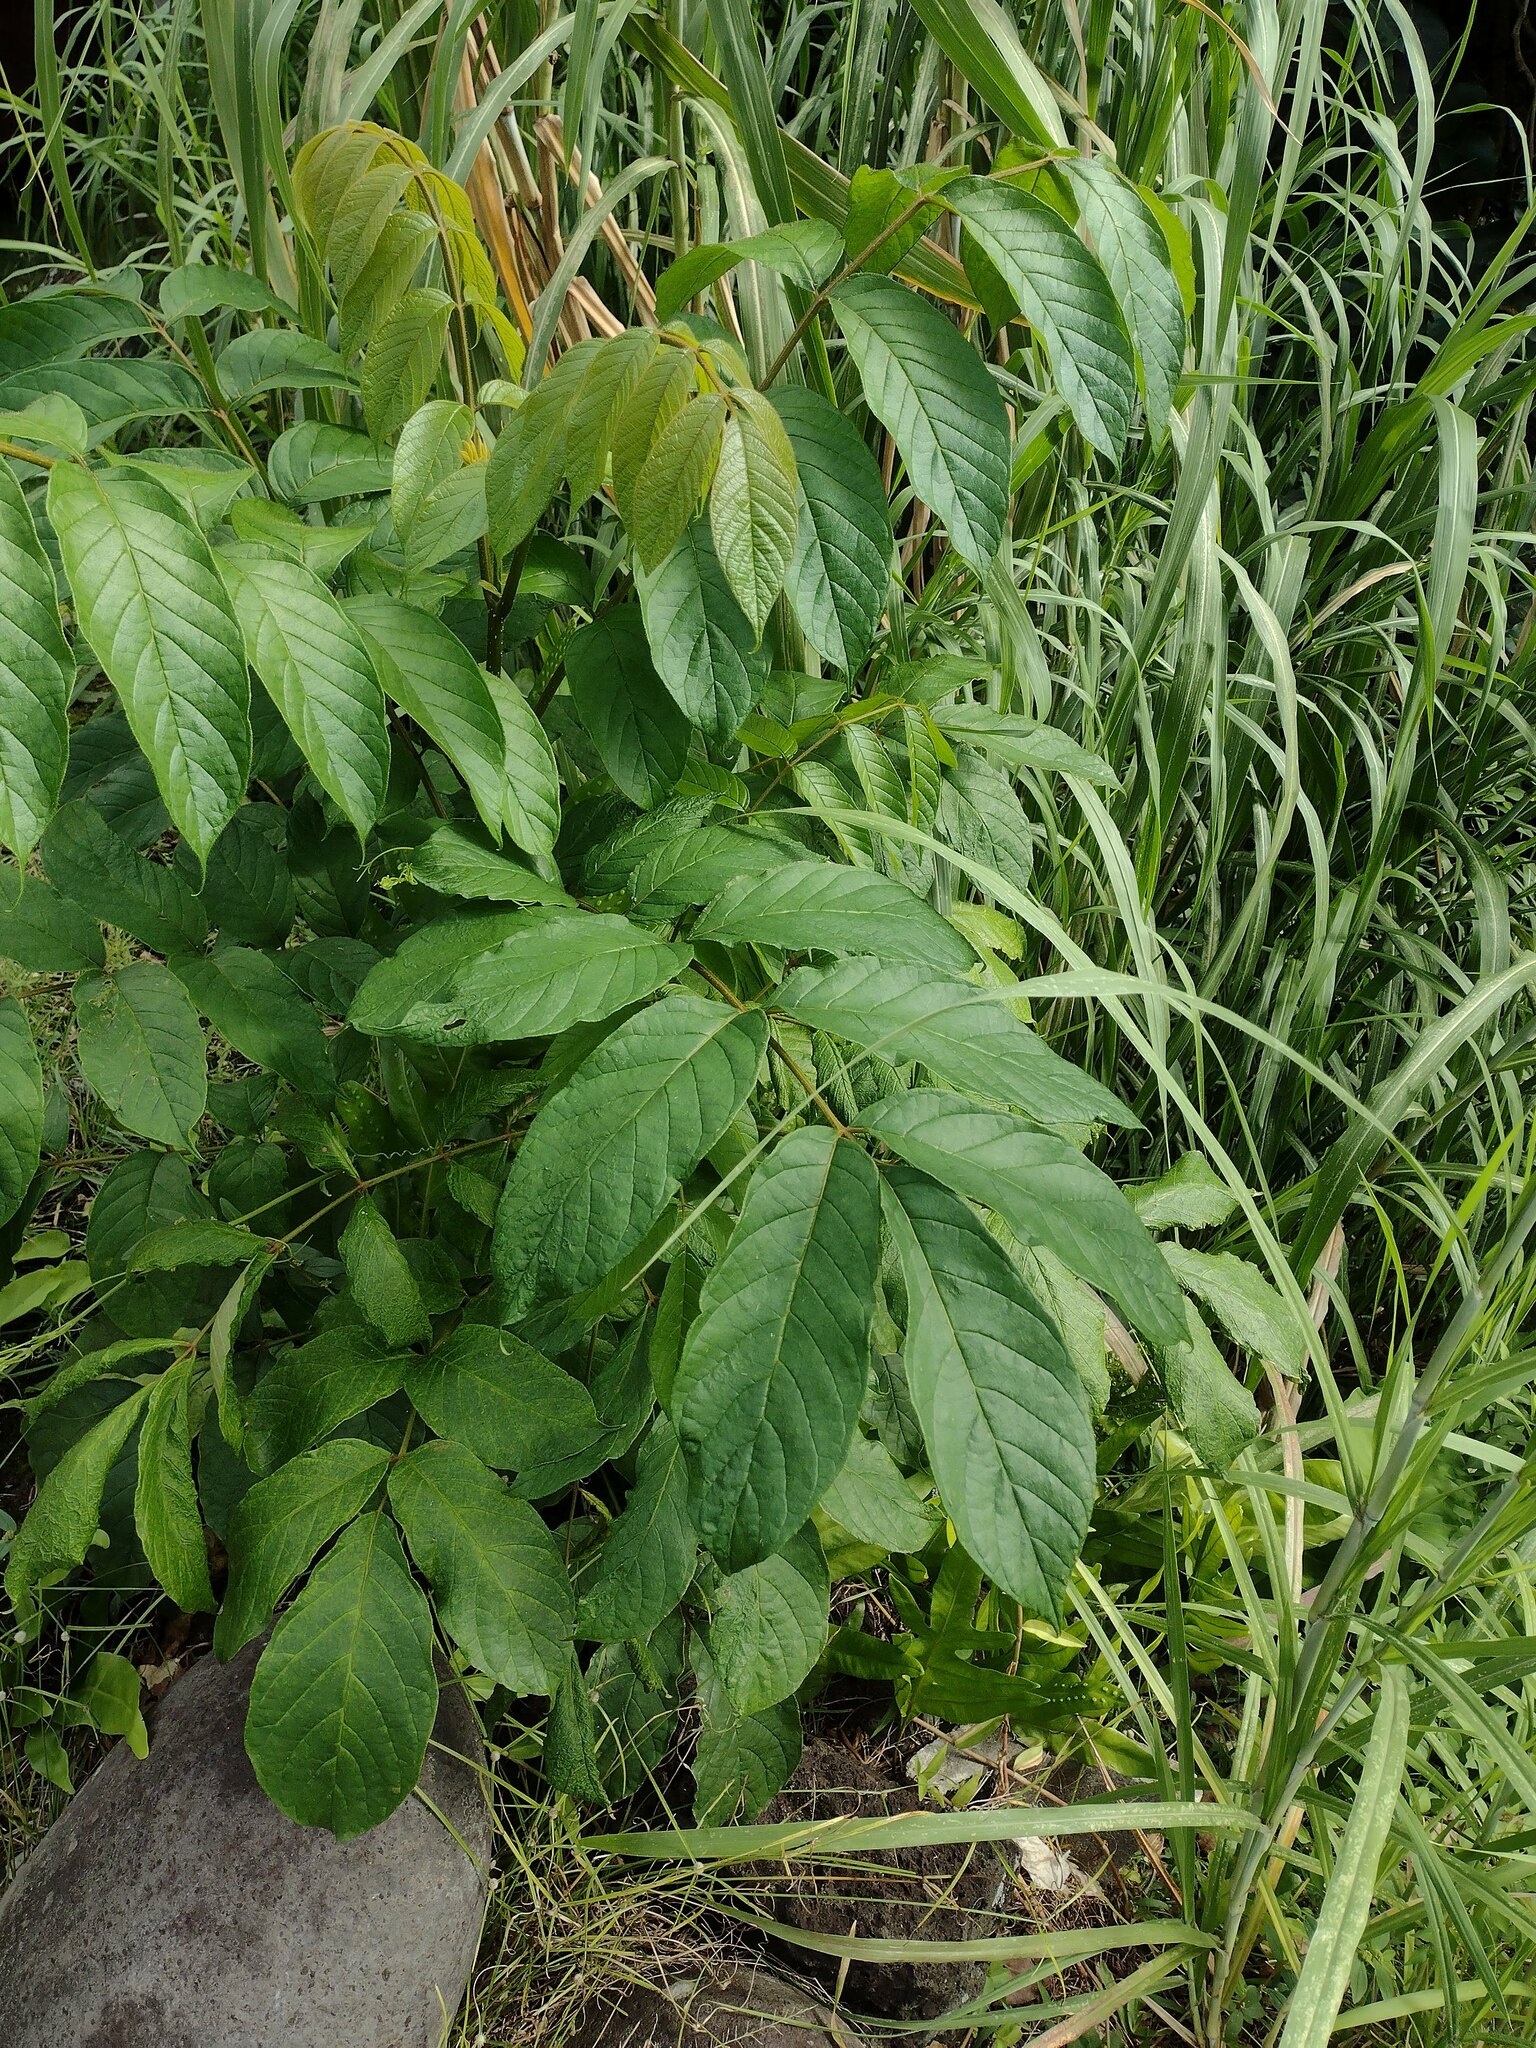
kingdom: Plantae
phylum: Tracheophyta
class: Magnoliopsida
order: Lamiales
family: Bignoniaceae
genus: Spathodea
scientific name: Spathodea campanulata
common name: African tuliptree
